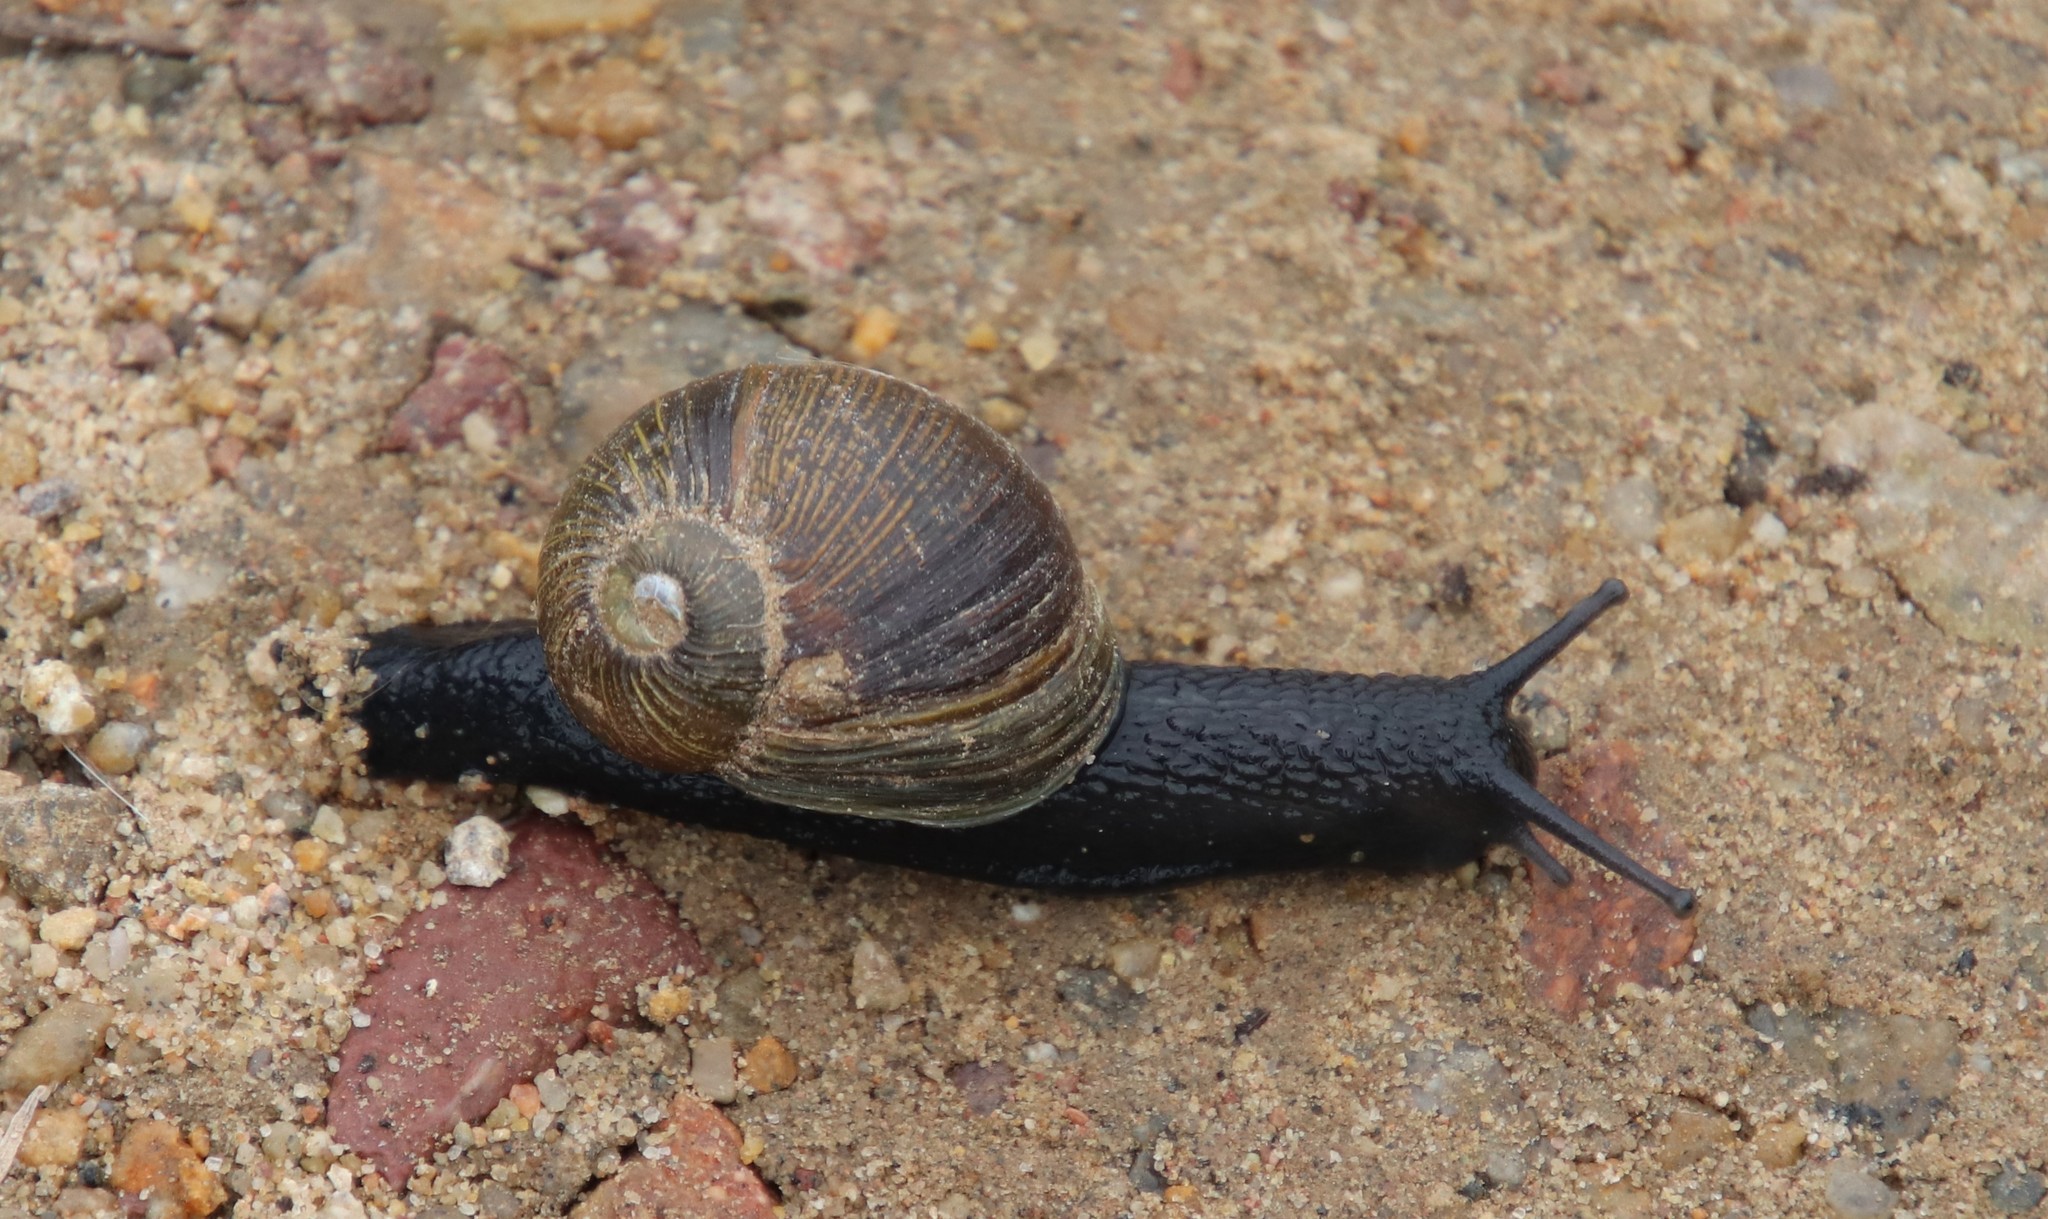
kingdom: Animalia
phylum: Mollusca
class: Gastropoda
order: Stylommatophora
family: Helicidae
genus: Cantareus
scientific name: Cantareus apertus
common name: Green gardensnail
